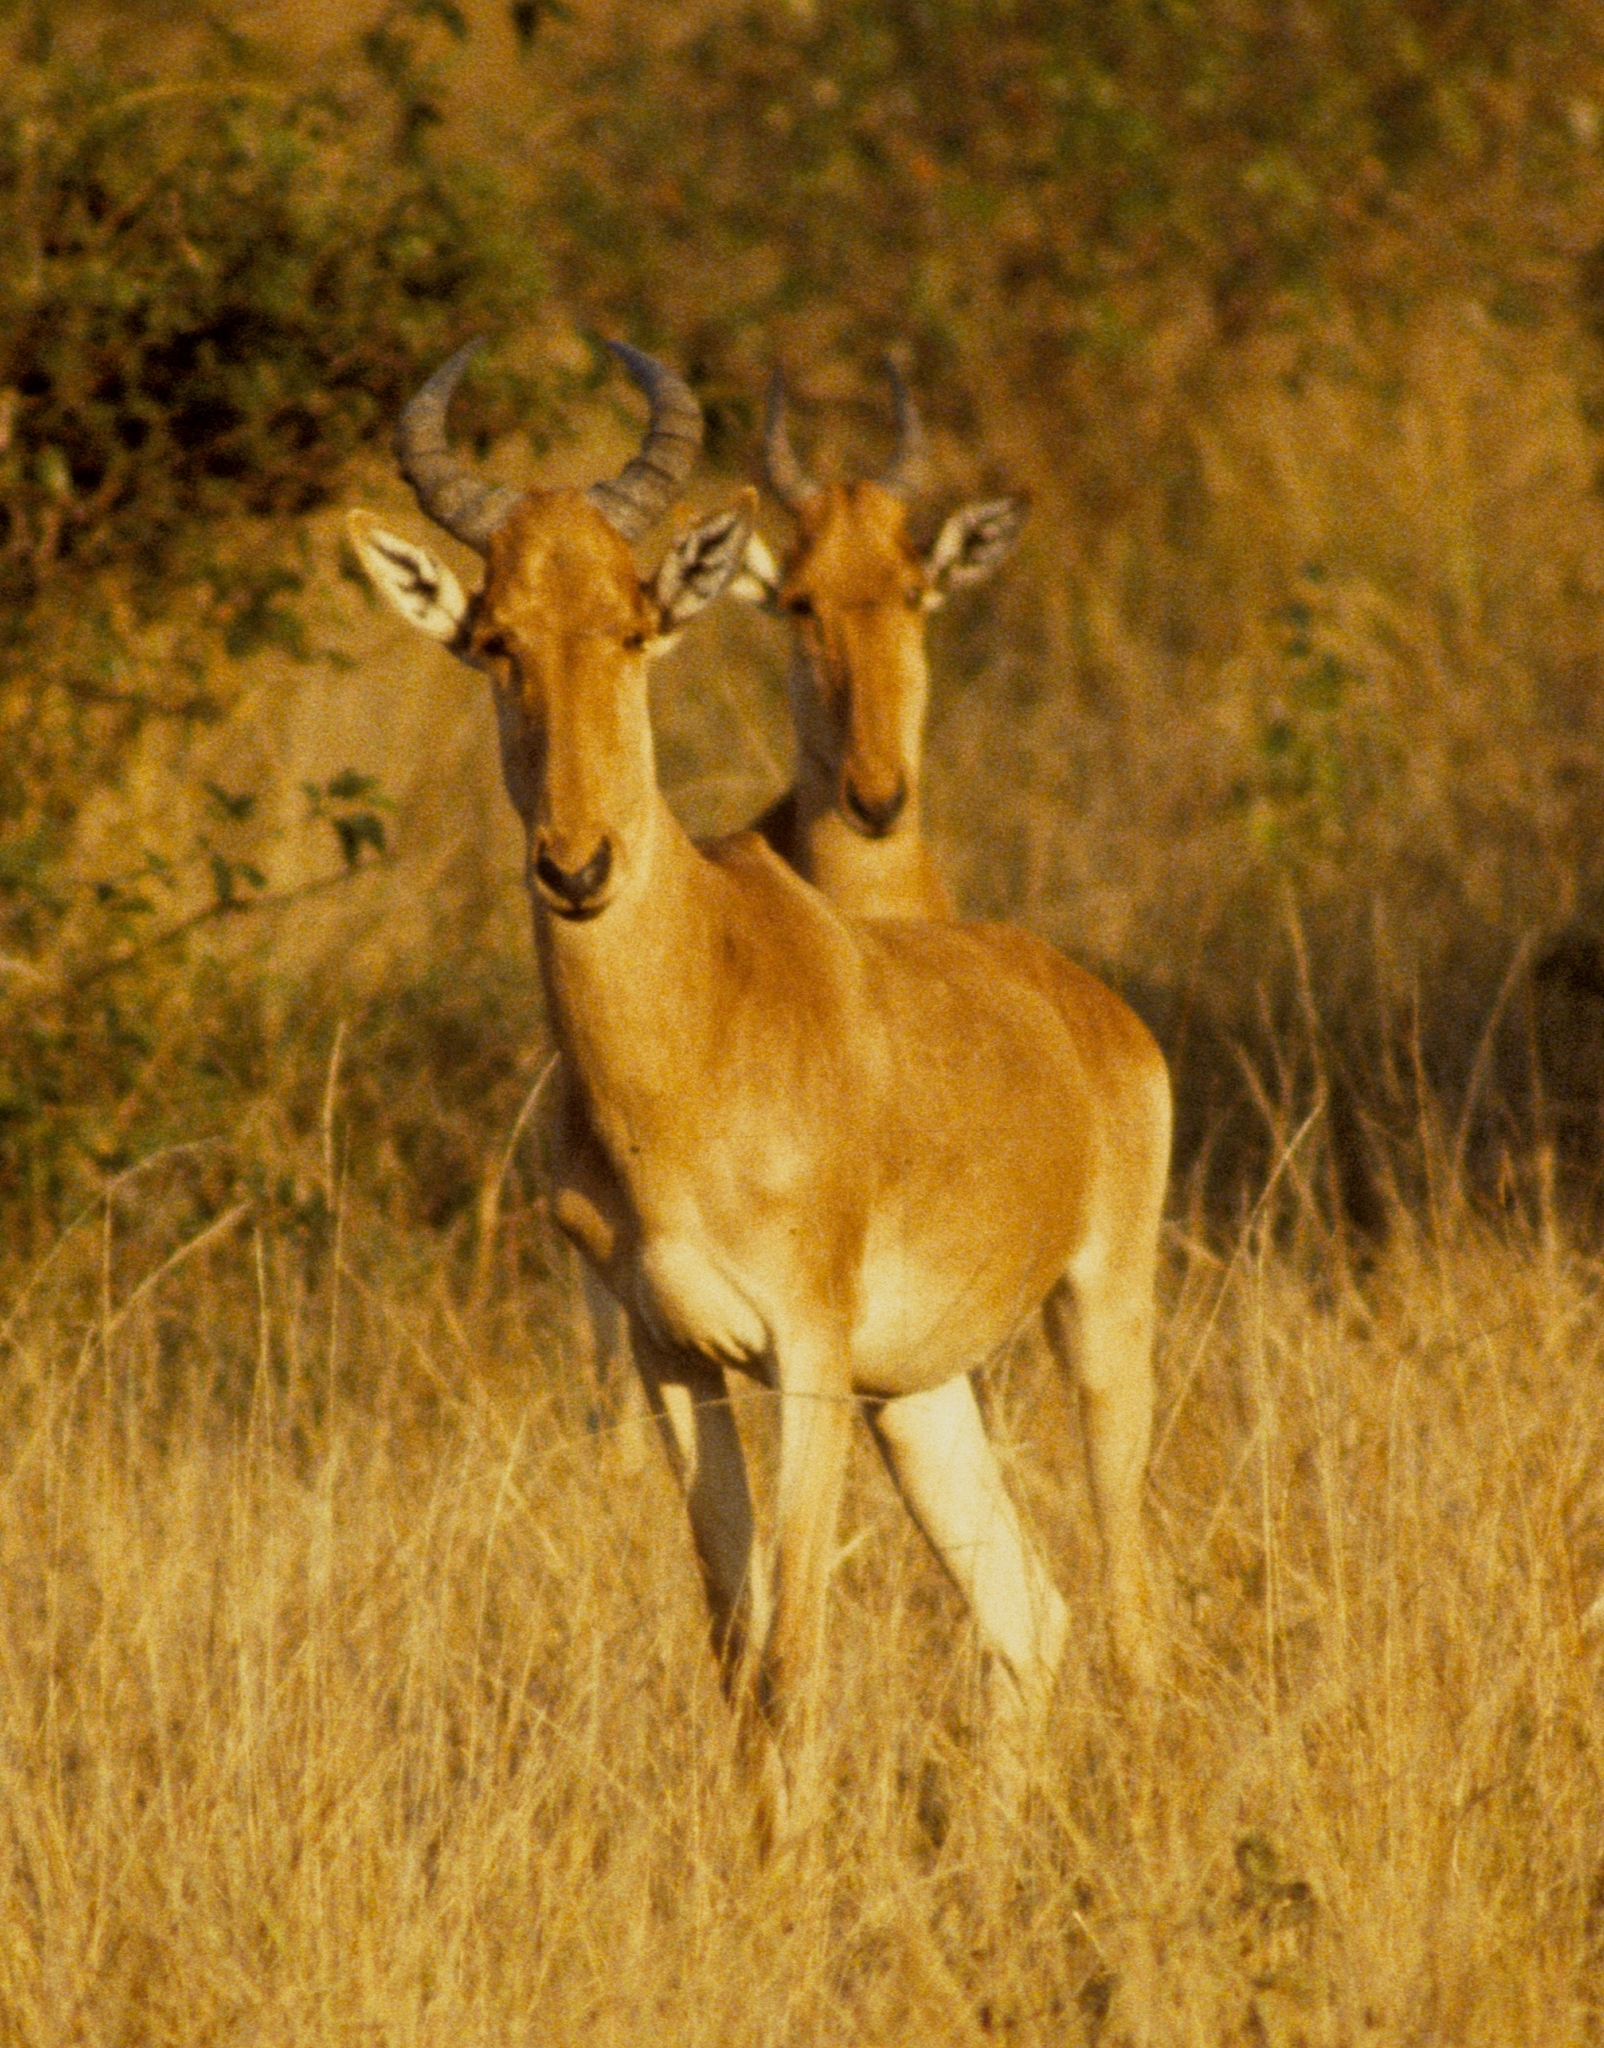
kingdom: Animalia
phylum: Chordata
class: Mammalia
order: Artiodactyla
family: Bovidae
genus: Alcelaphus
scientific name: Alcelaphus buselaphus
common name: Hartebeest
